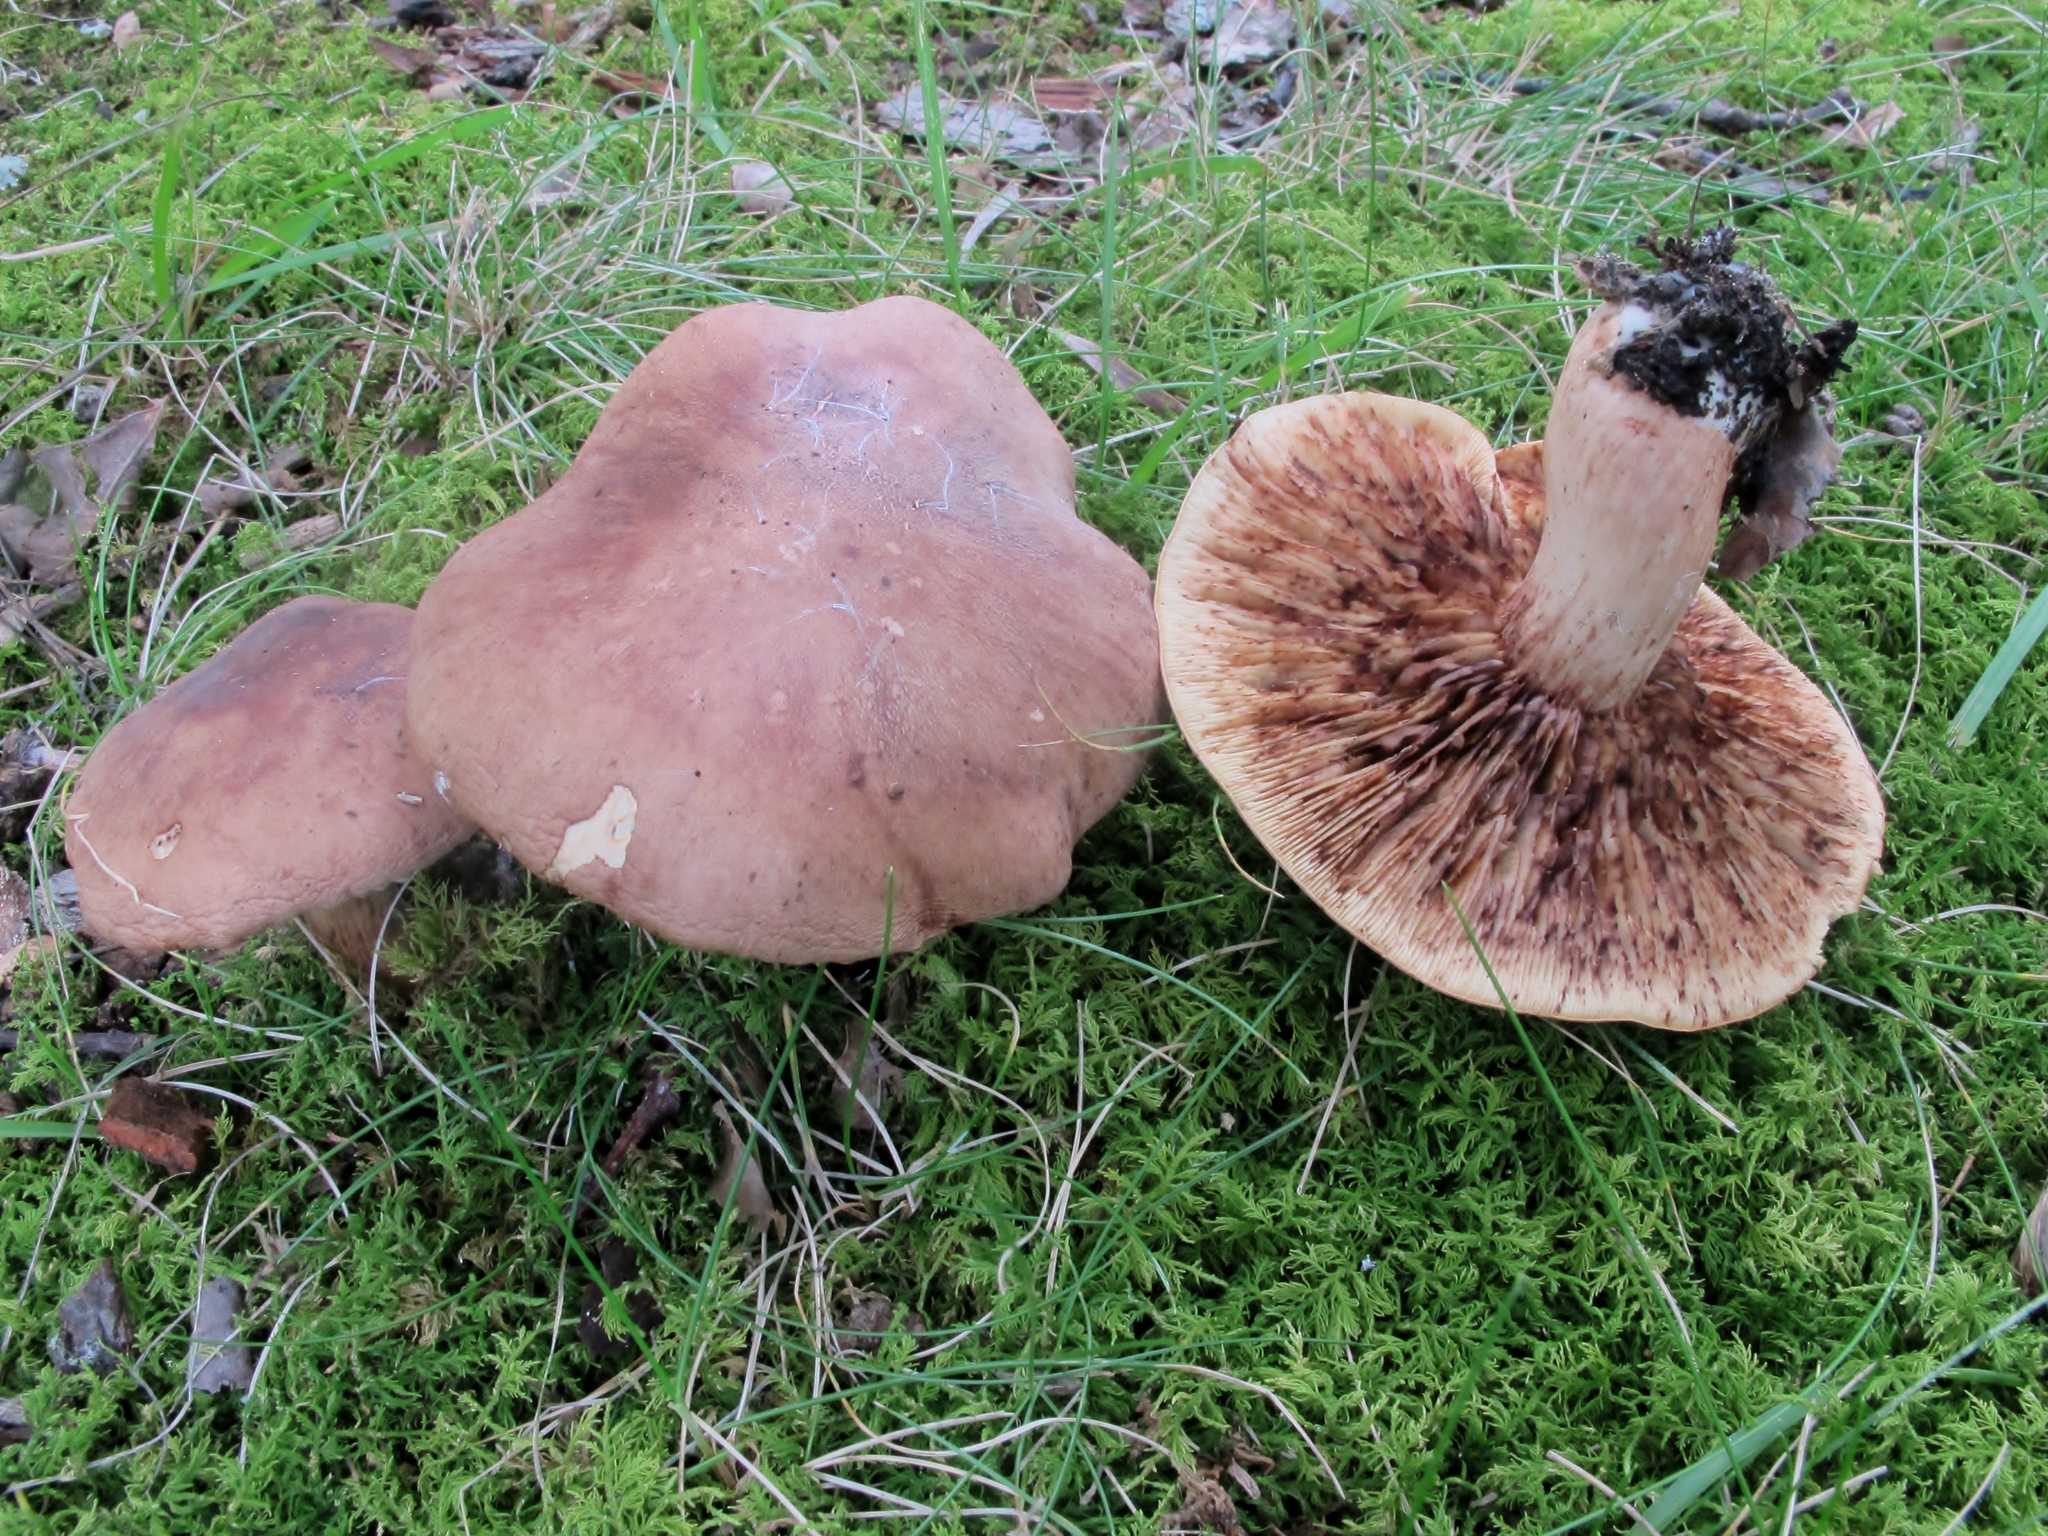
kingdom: Fungi
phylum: Basidiomycota
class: Agaricomycetes
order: Agaricales
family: Tricholomataceae
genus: Tricholoma
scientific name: Tricholoma fulvum
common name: Birch knight
